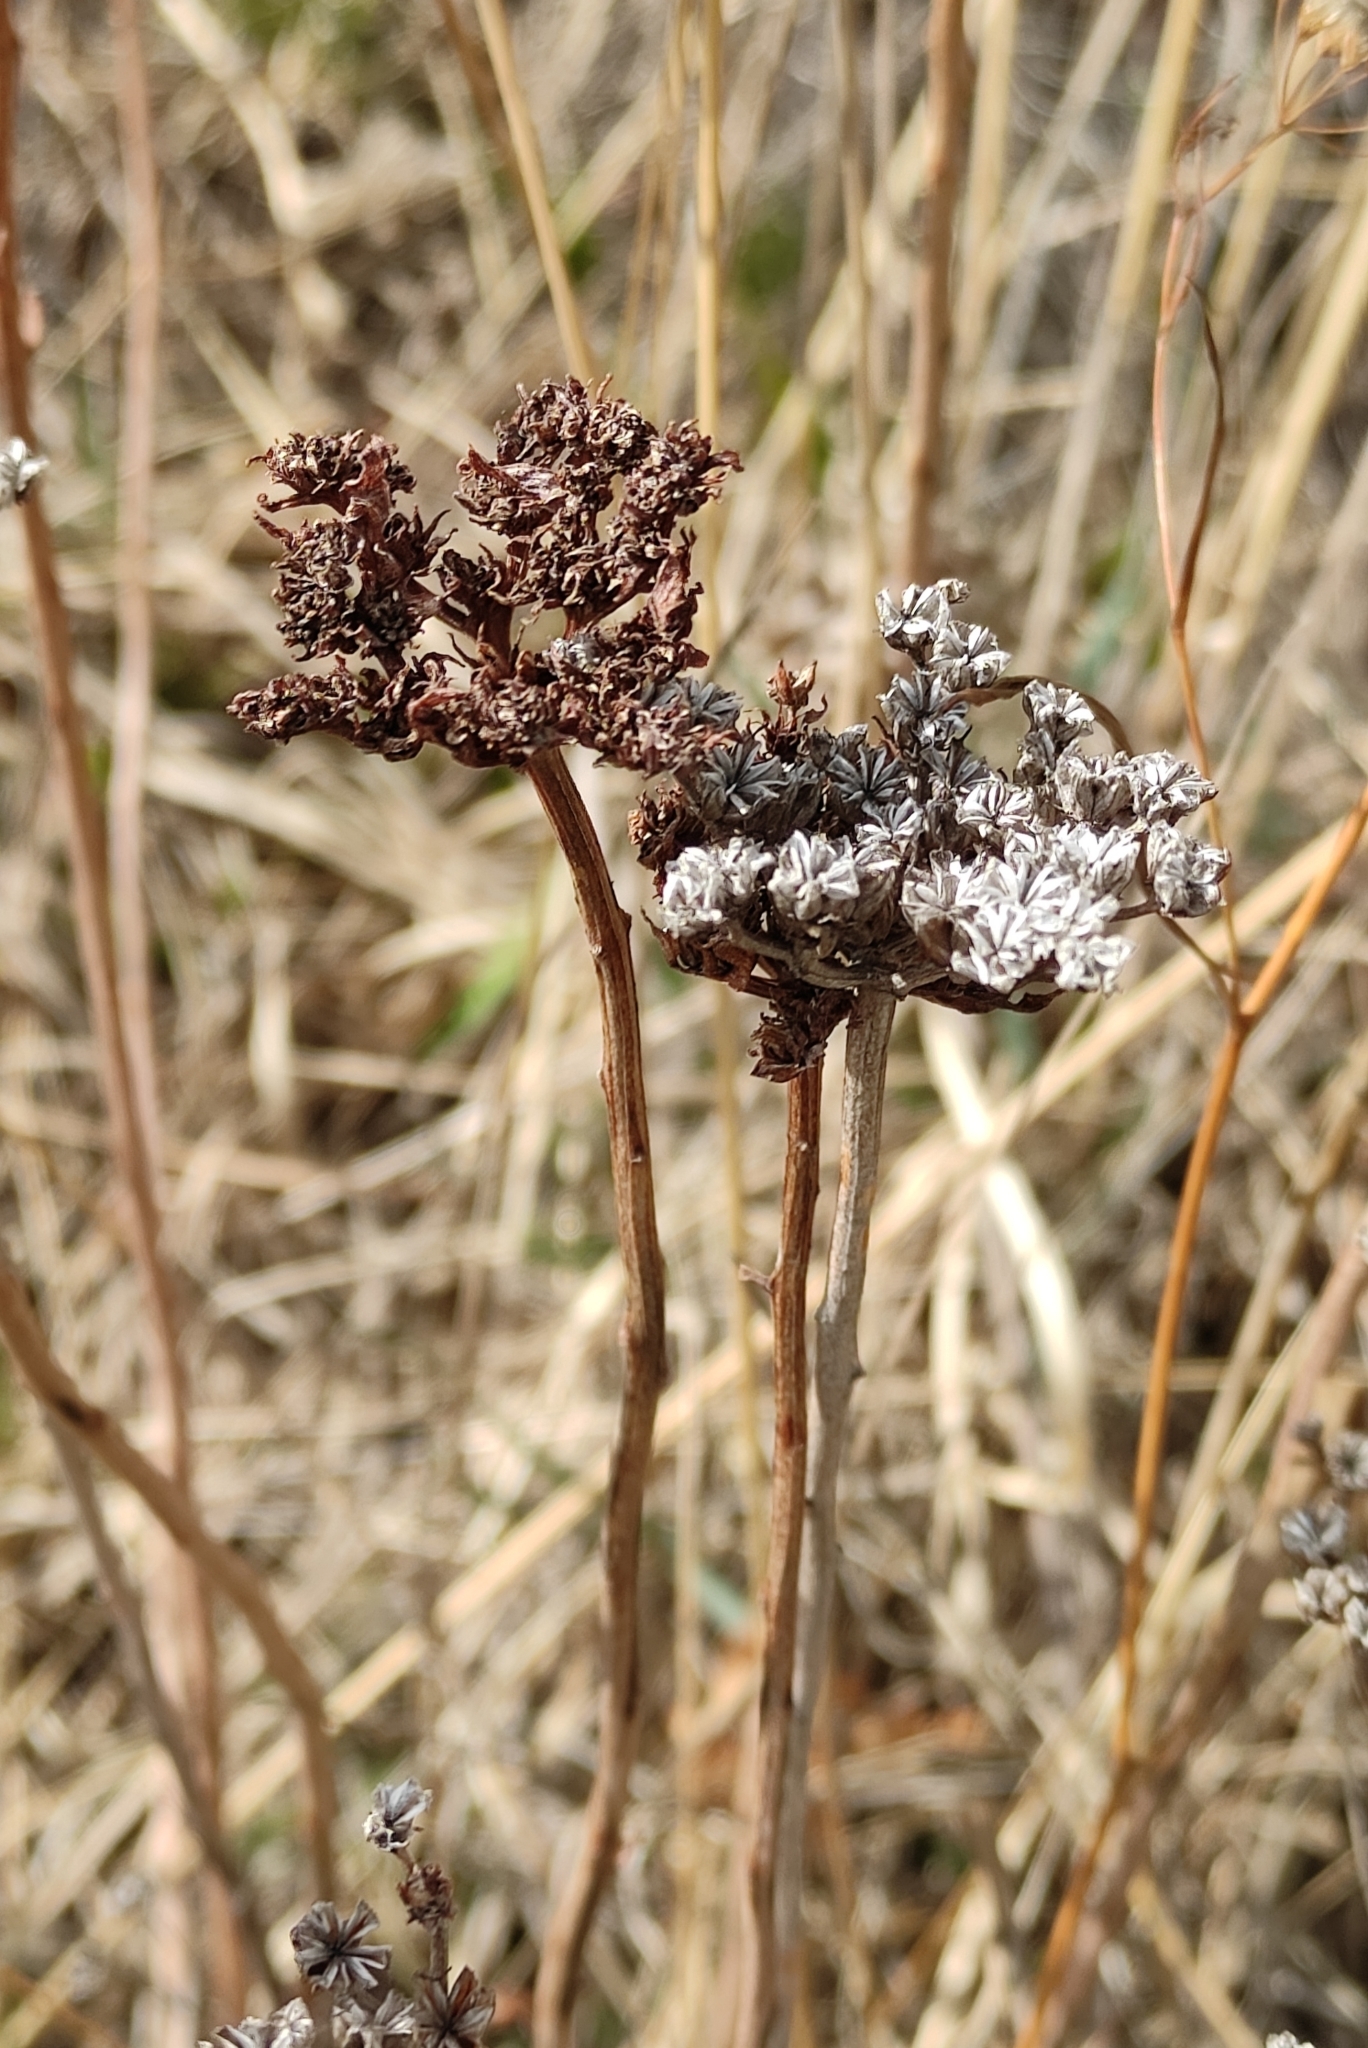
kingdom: Plantae
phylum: Tracheophyta
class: Magnoliopsida
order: Saxifragales
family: Crassulaceae
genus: Phedimus
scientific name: Phedimus aizoon
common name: Orpin aizoon
